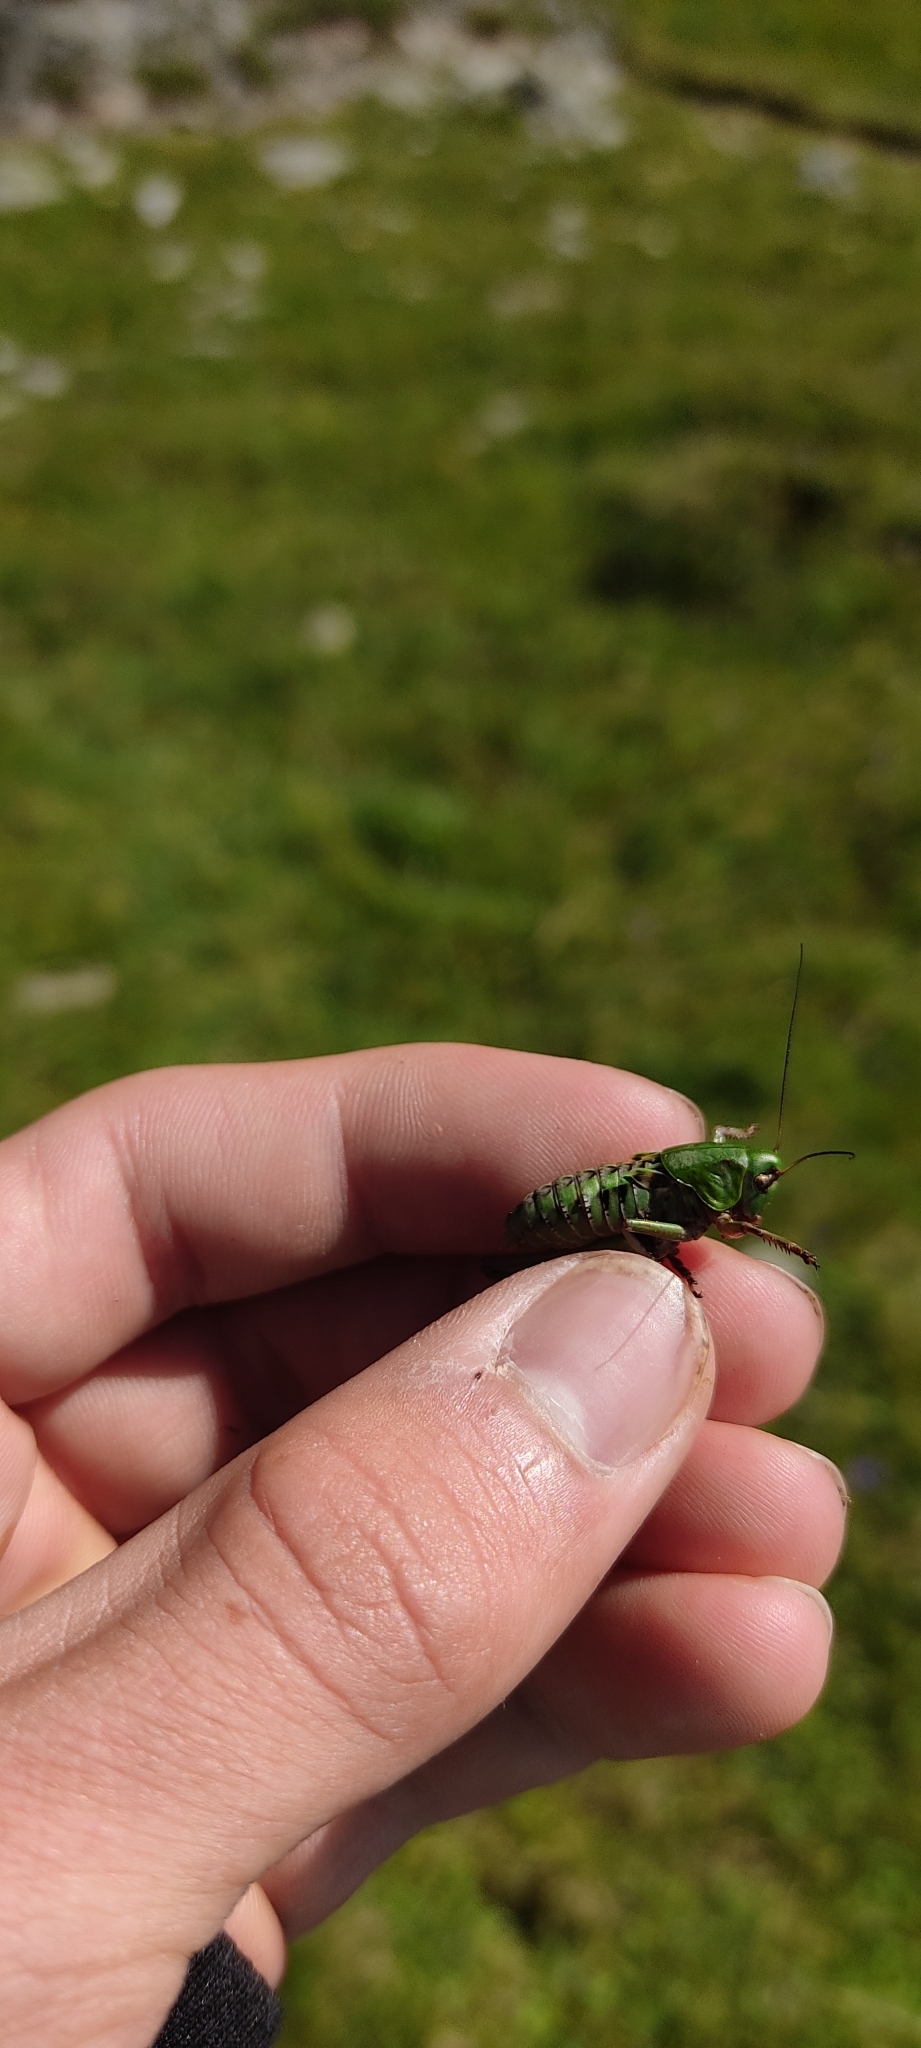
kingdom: Animalia
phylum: Arthropoda
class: Insecta
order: Orthoptera
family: Tettigoniidae
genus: Decticus
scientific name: Decticus verrucivorus
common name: Wart-biter
